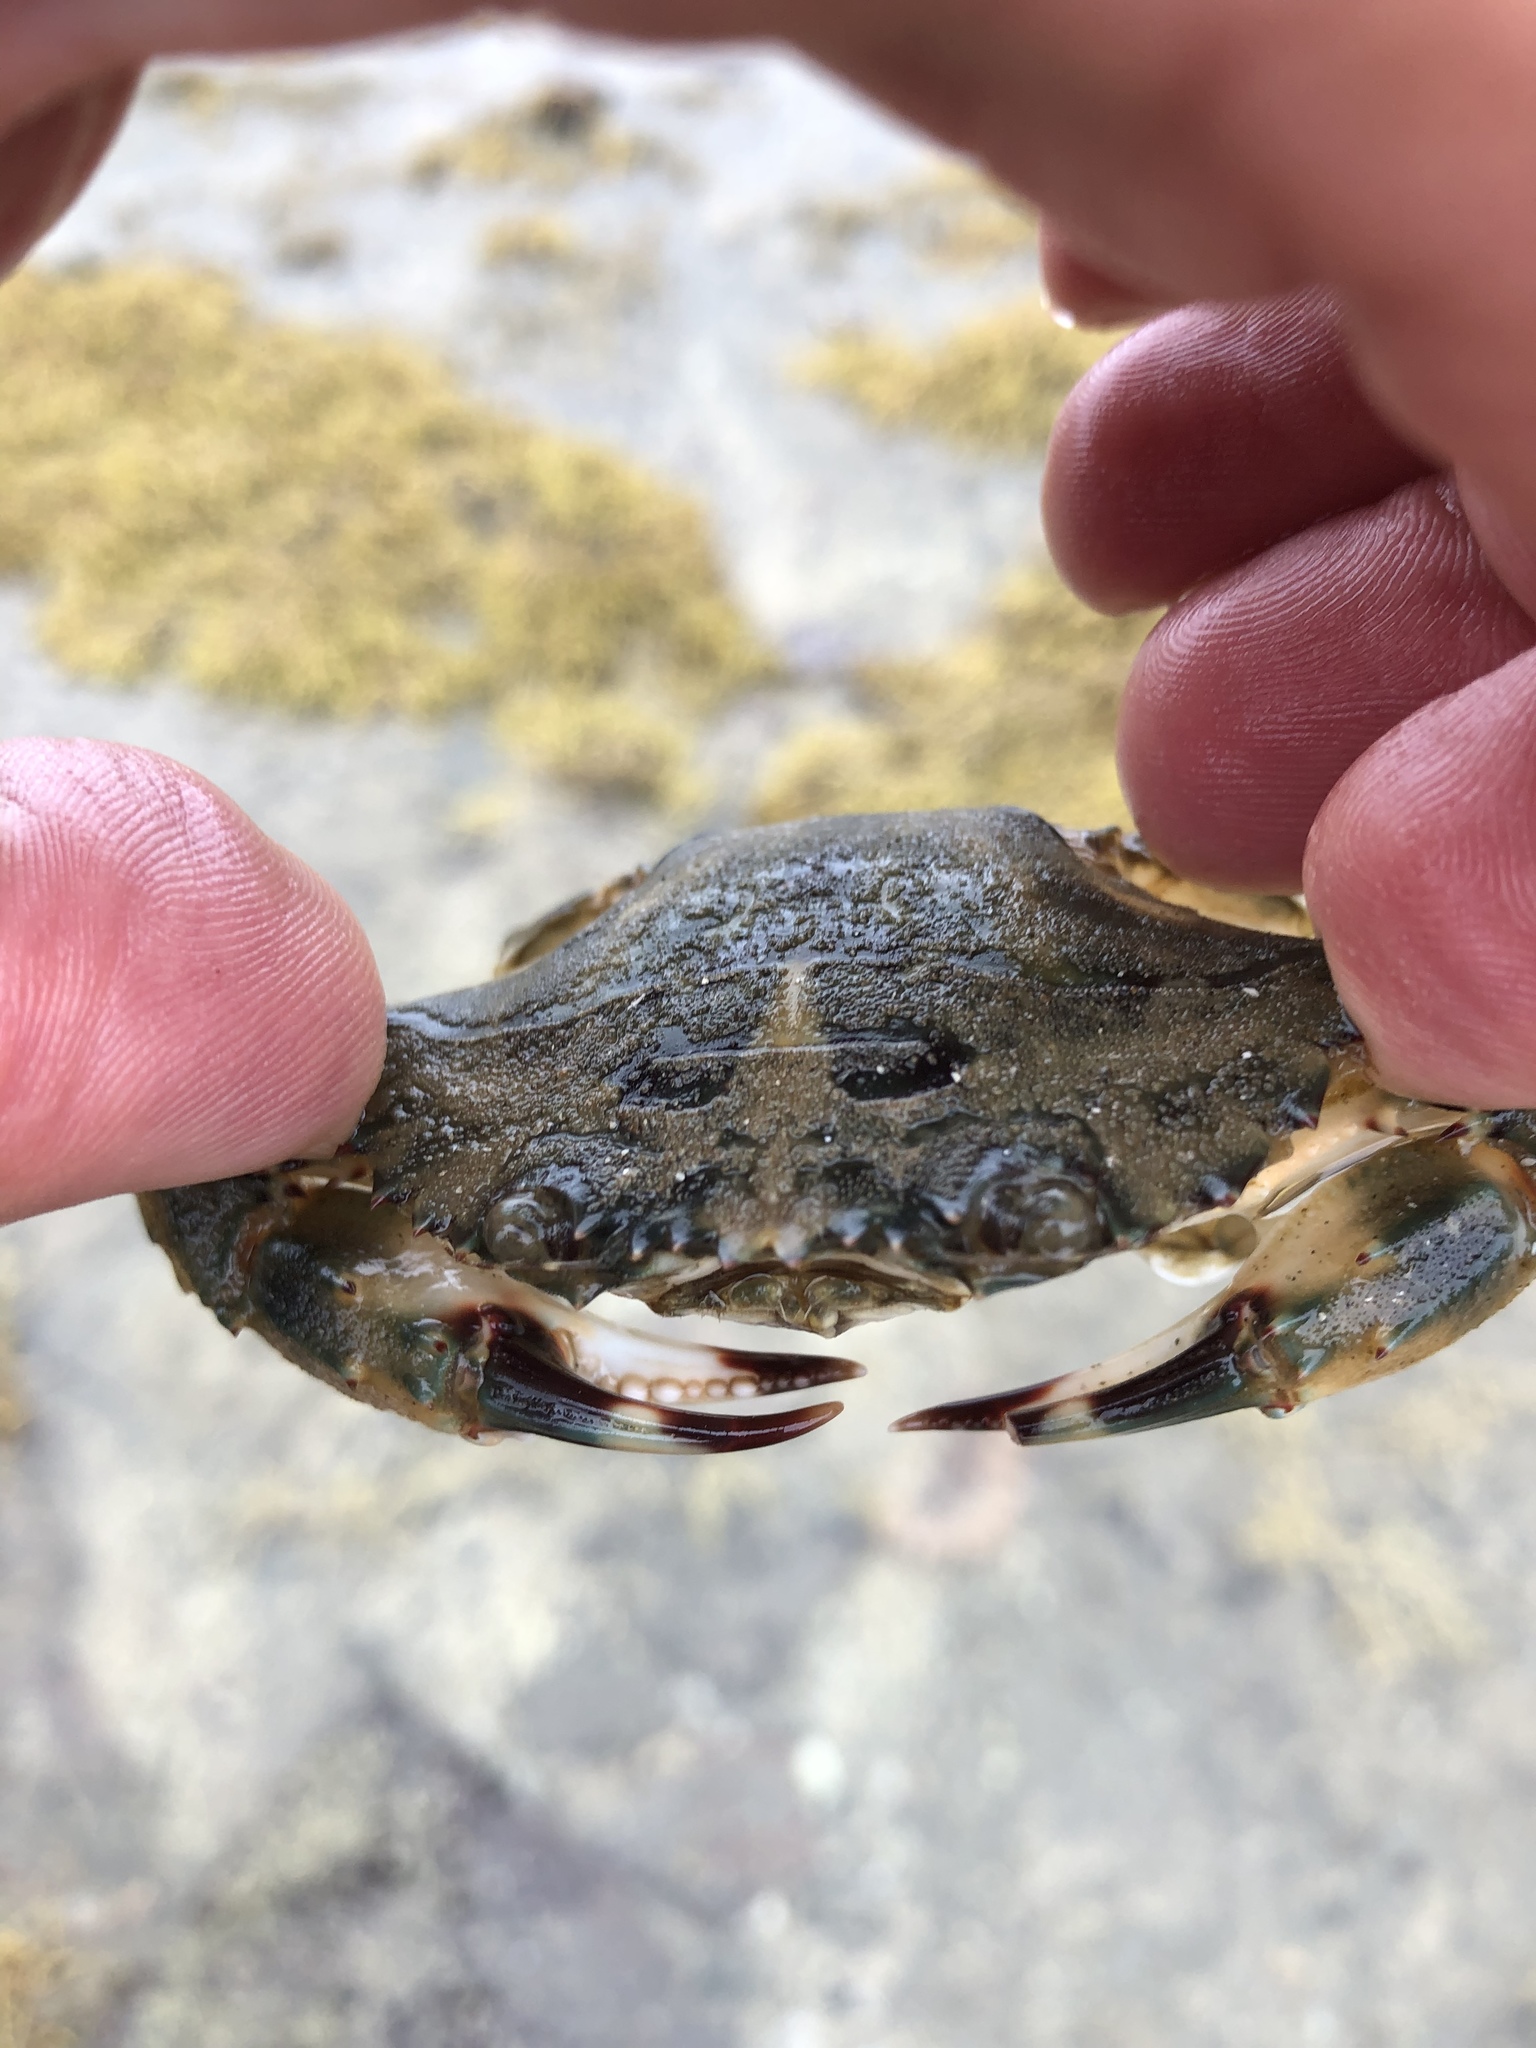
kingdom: Animalia
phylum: Arthropoda
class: Malacostraca
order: Decapoda
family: Portunidae
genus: Charybdis
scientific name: Charybdis japonica
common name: Asian paddle crab
